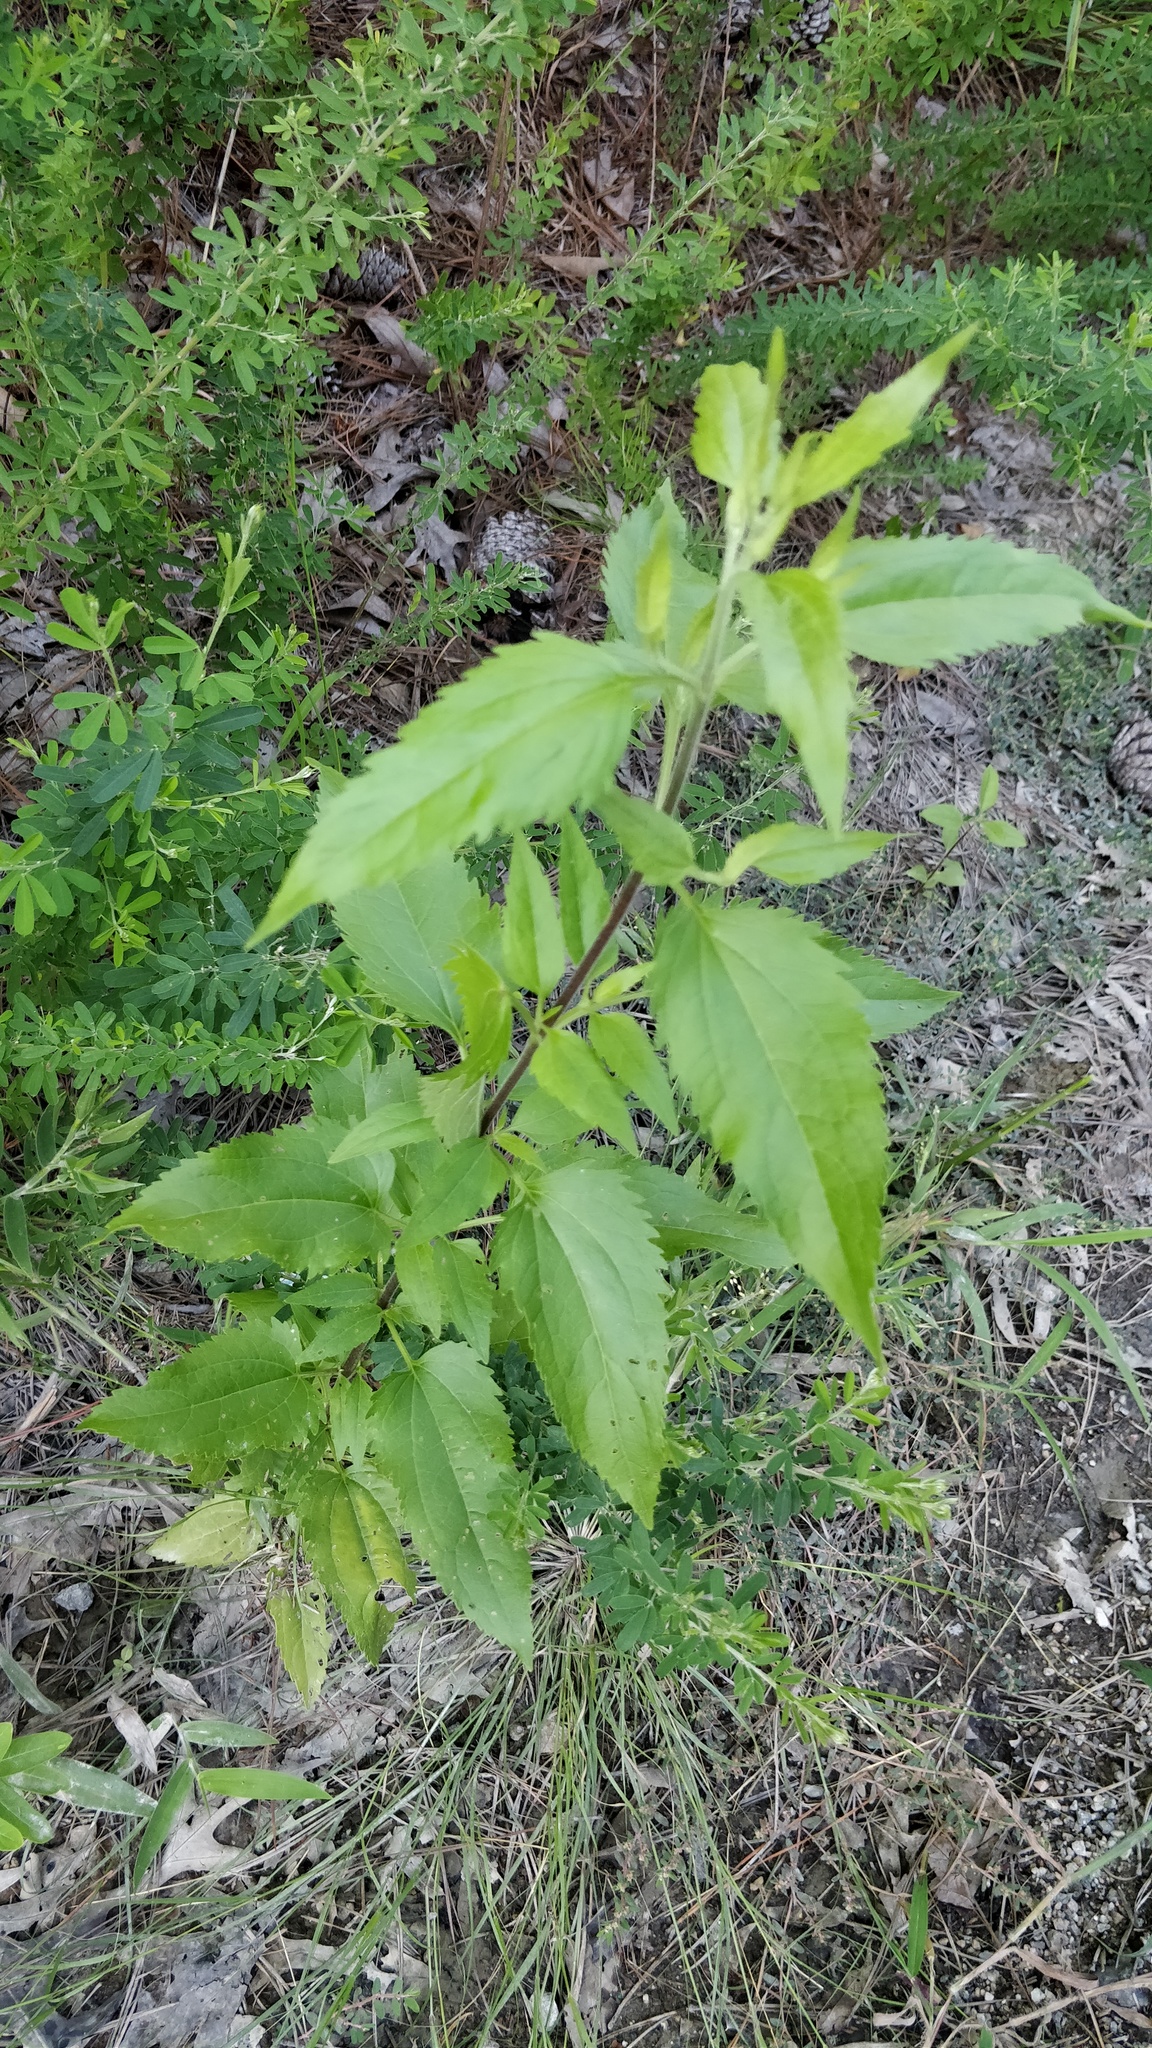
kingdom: Plantae
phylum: Tracheophyta
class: Magnoliopsida
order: Asterales
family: Asteraceae
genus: Eupatorium
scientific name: Eupatorium serotinum
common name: Late boneset
